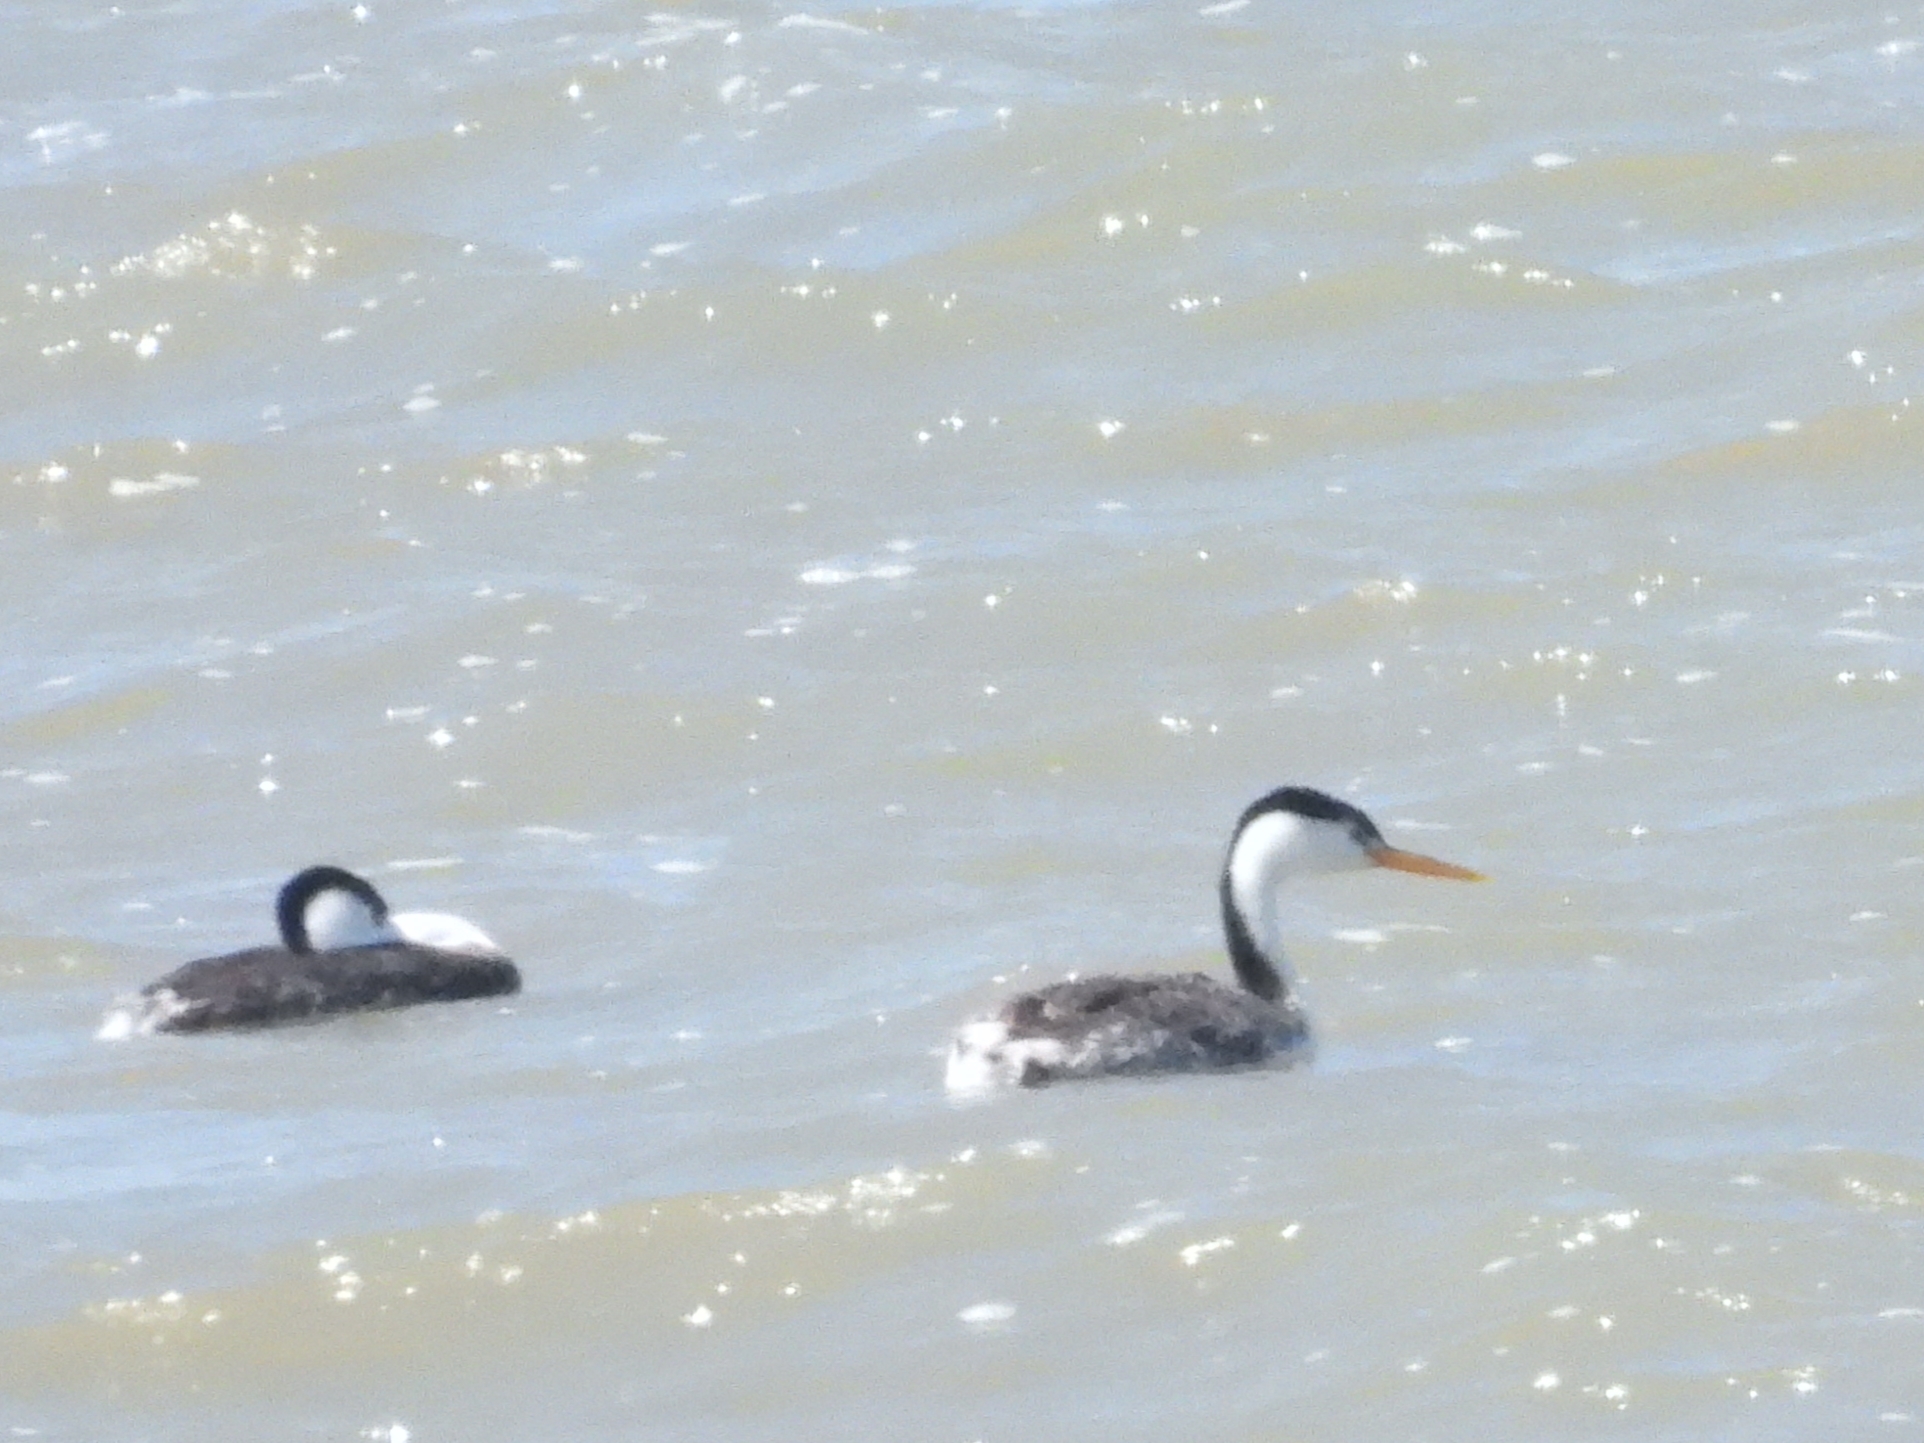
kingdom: Animalia
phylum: Chordata
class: Aves
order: Podicipediformes
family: Podicipedidae
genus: Aechmophorus
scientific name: Aechmophorus clarkii
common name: Clark's grebe
